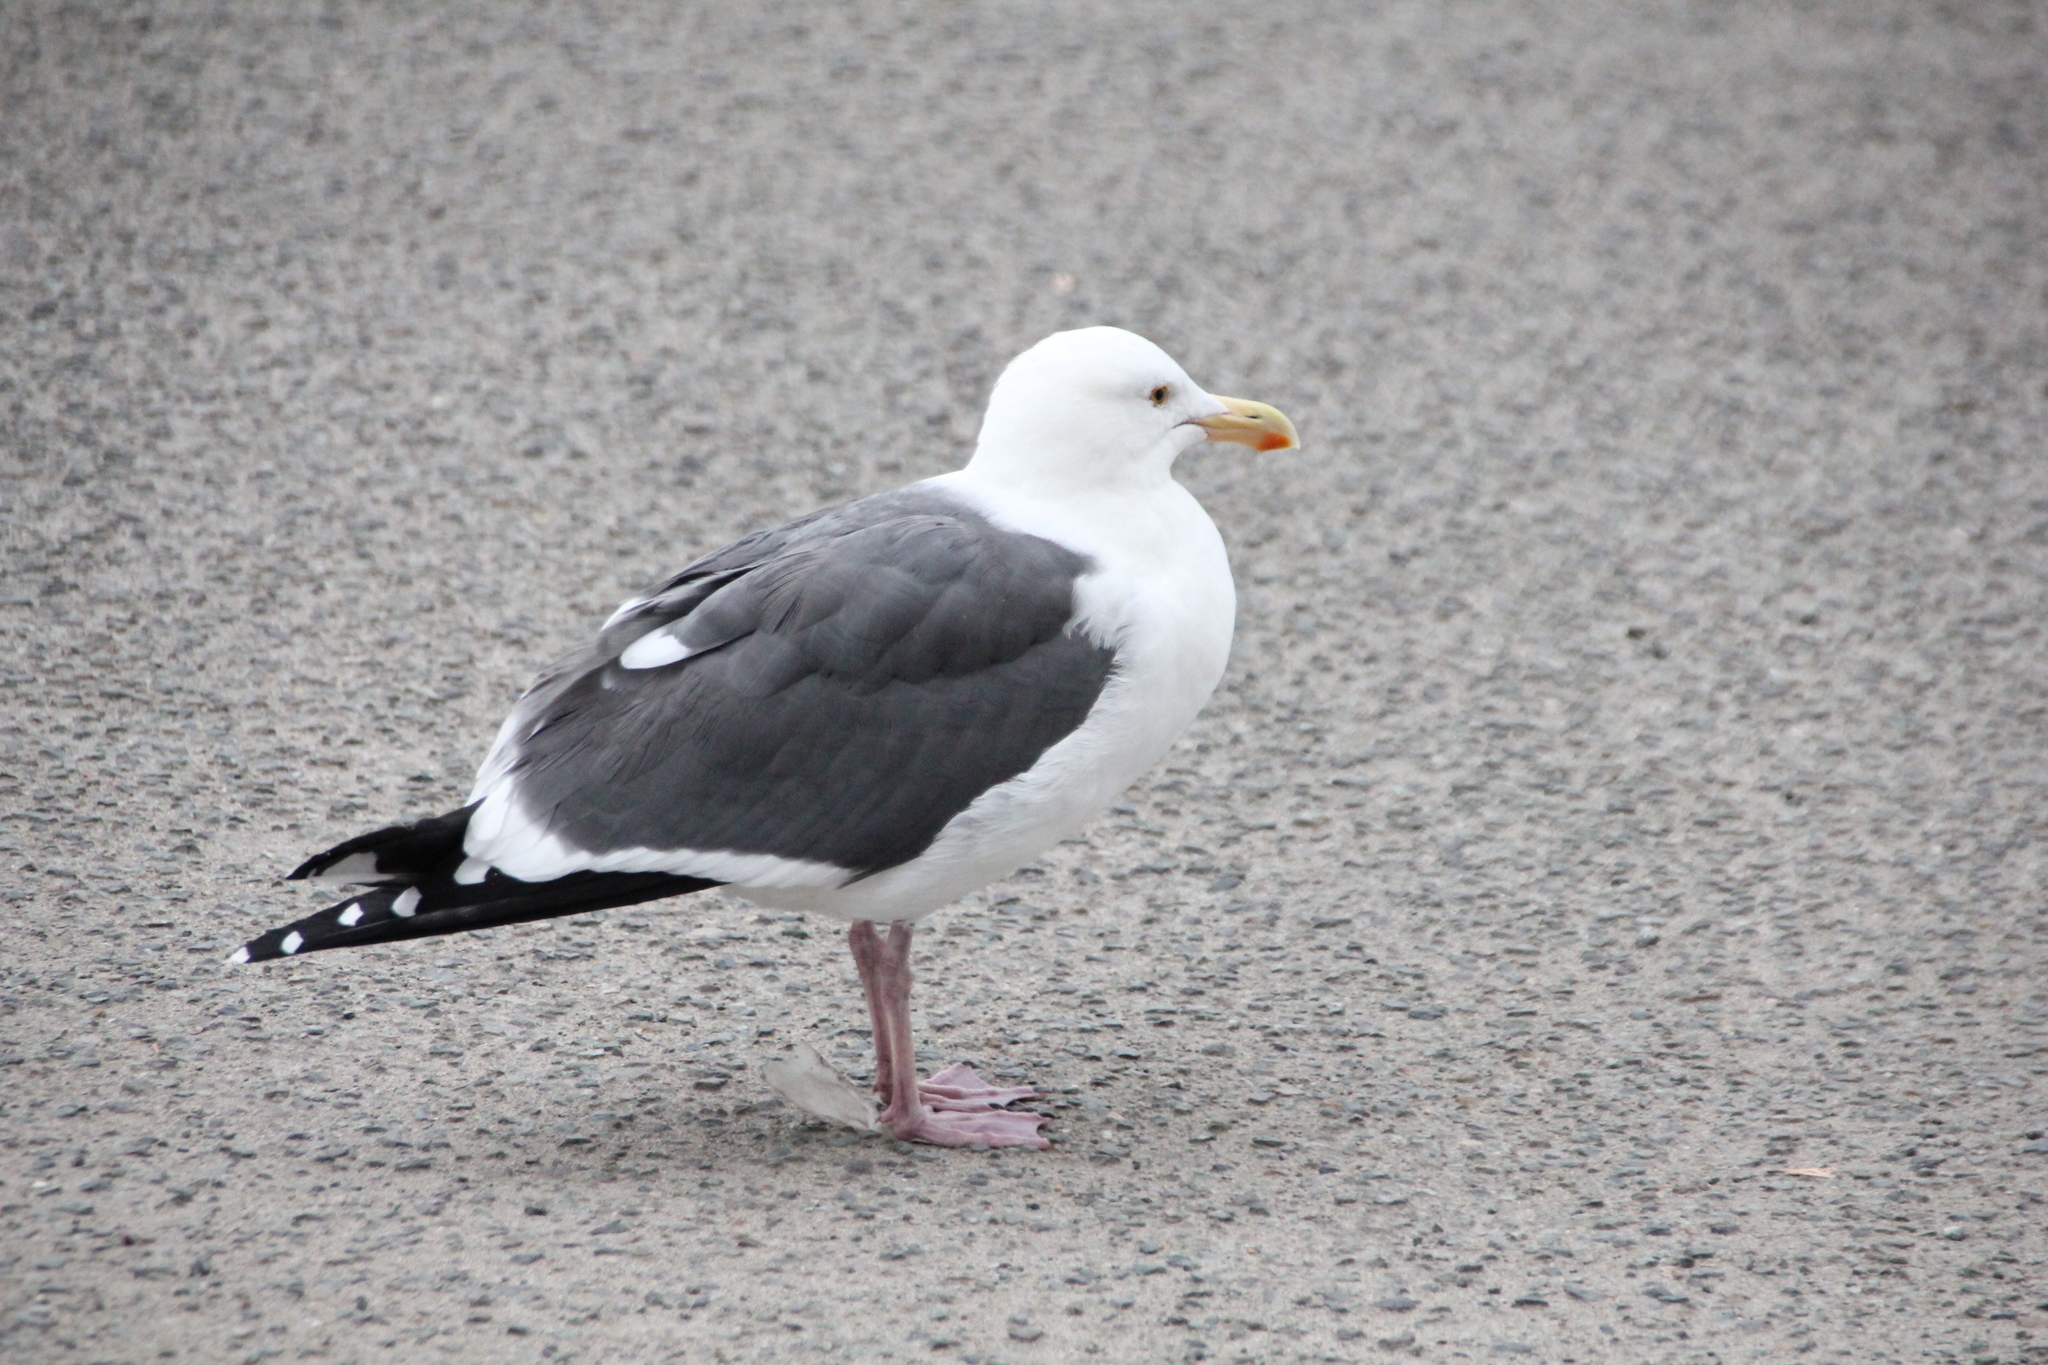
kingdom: Animalia
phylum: Chordata
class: Aves
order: Charadriiformes
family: Laridae
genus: Larus
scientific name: Larus occidentalis
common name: Western gull
